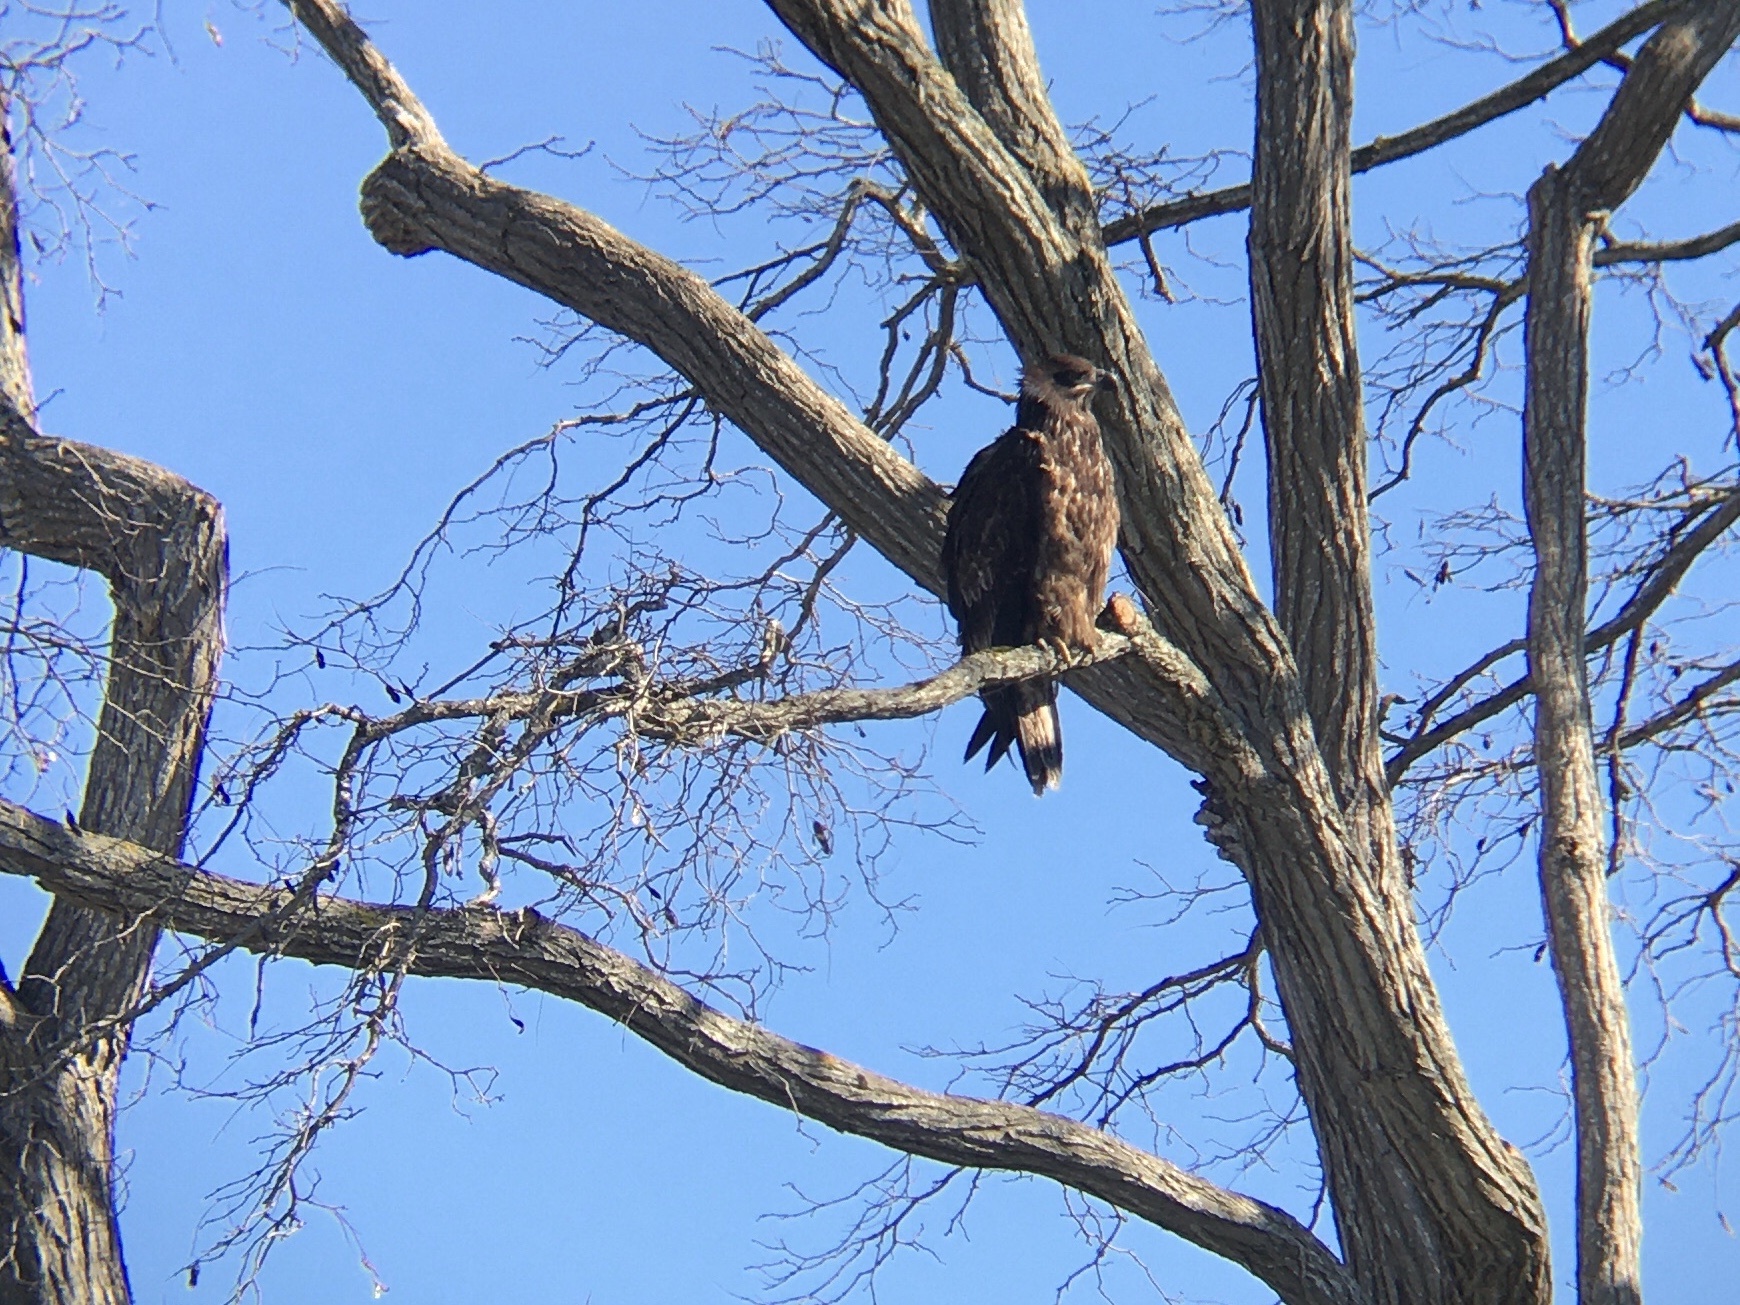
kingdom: Animalia
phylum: Chordata
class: Aves
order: Accipitriformes
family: Accipitridae
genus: Haliaeetus
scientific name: Haliaeetus leucocephalus
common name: Bald eagle
